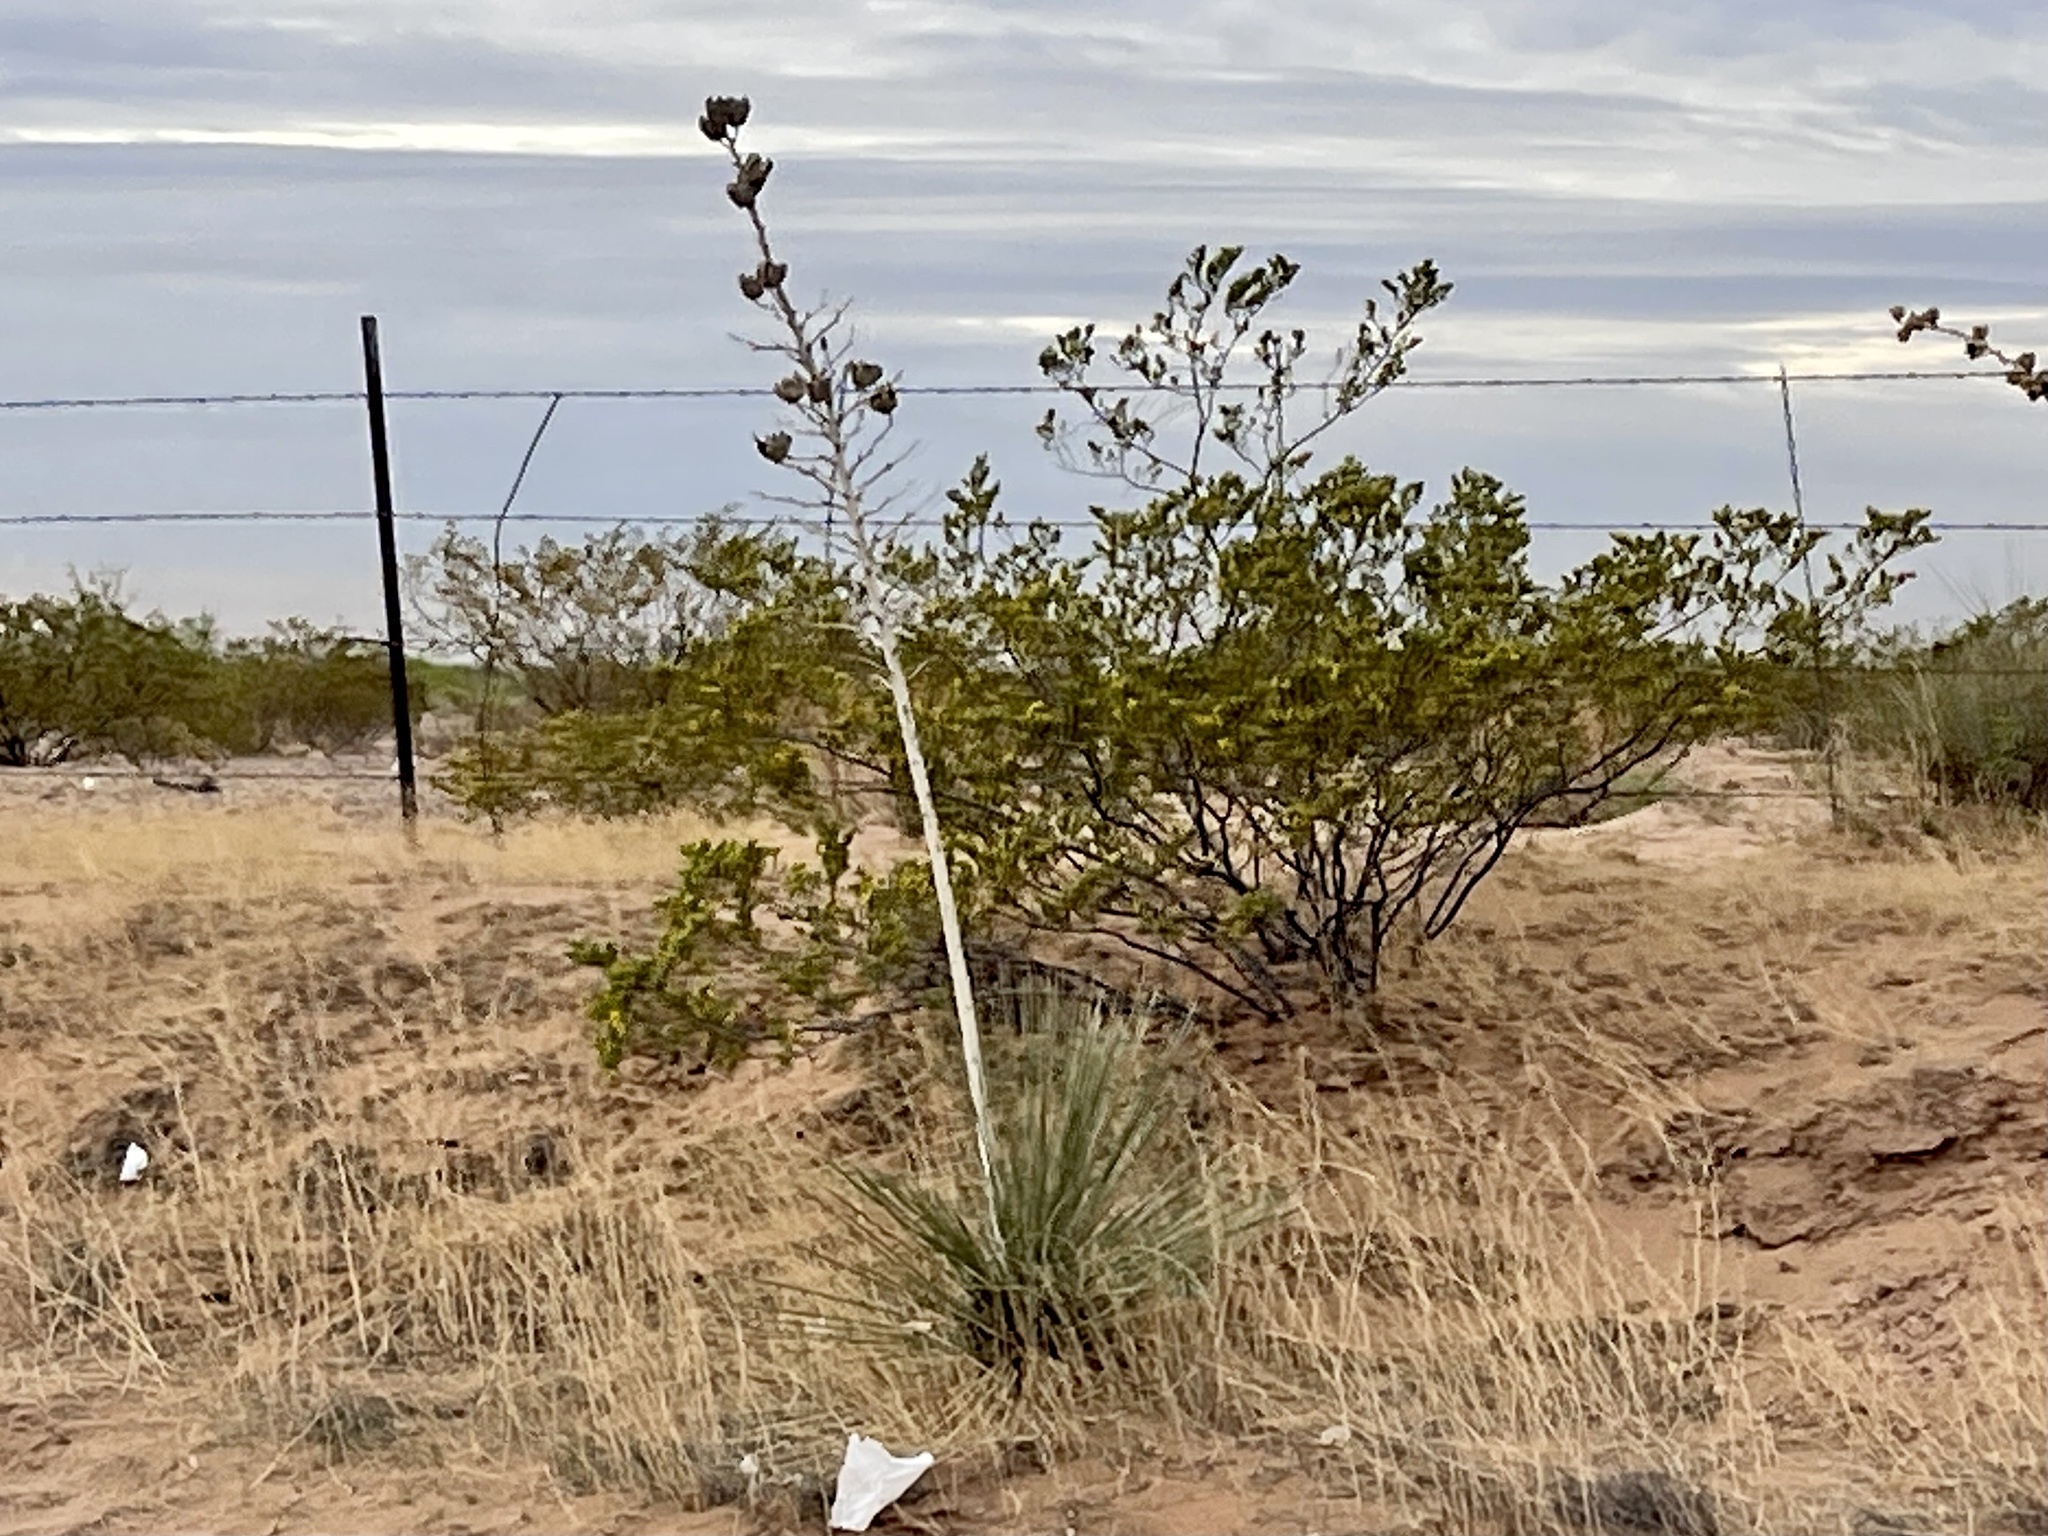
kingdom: Plantae
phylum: Tracheophyta
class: Liliopsida
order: Asparagales
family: Asparagaceae
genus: Yucca
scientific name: Yucca elata
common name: Palmella
